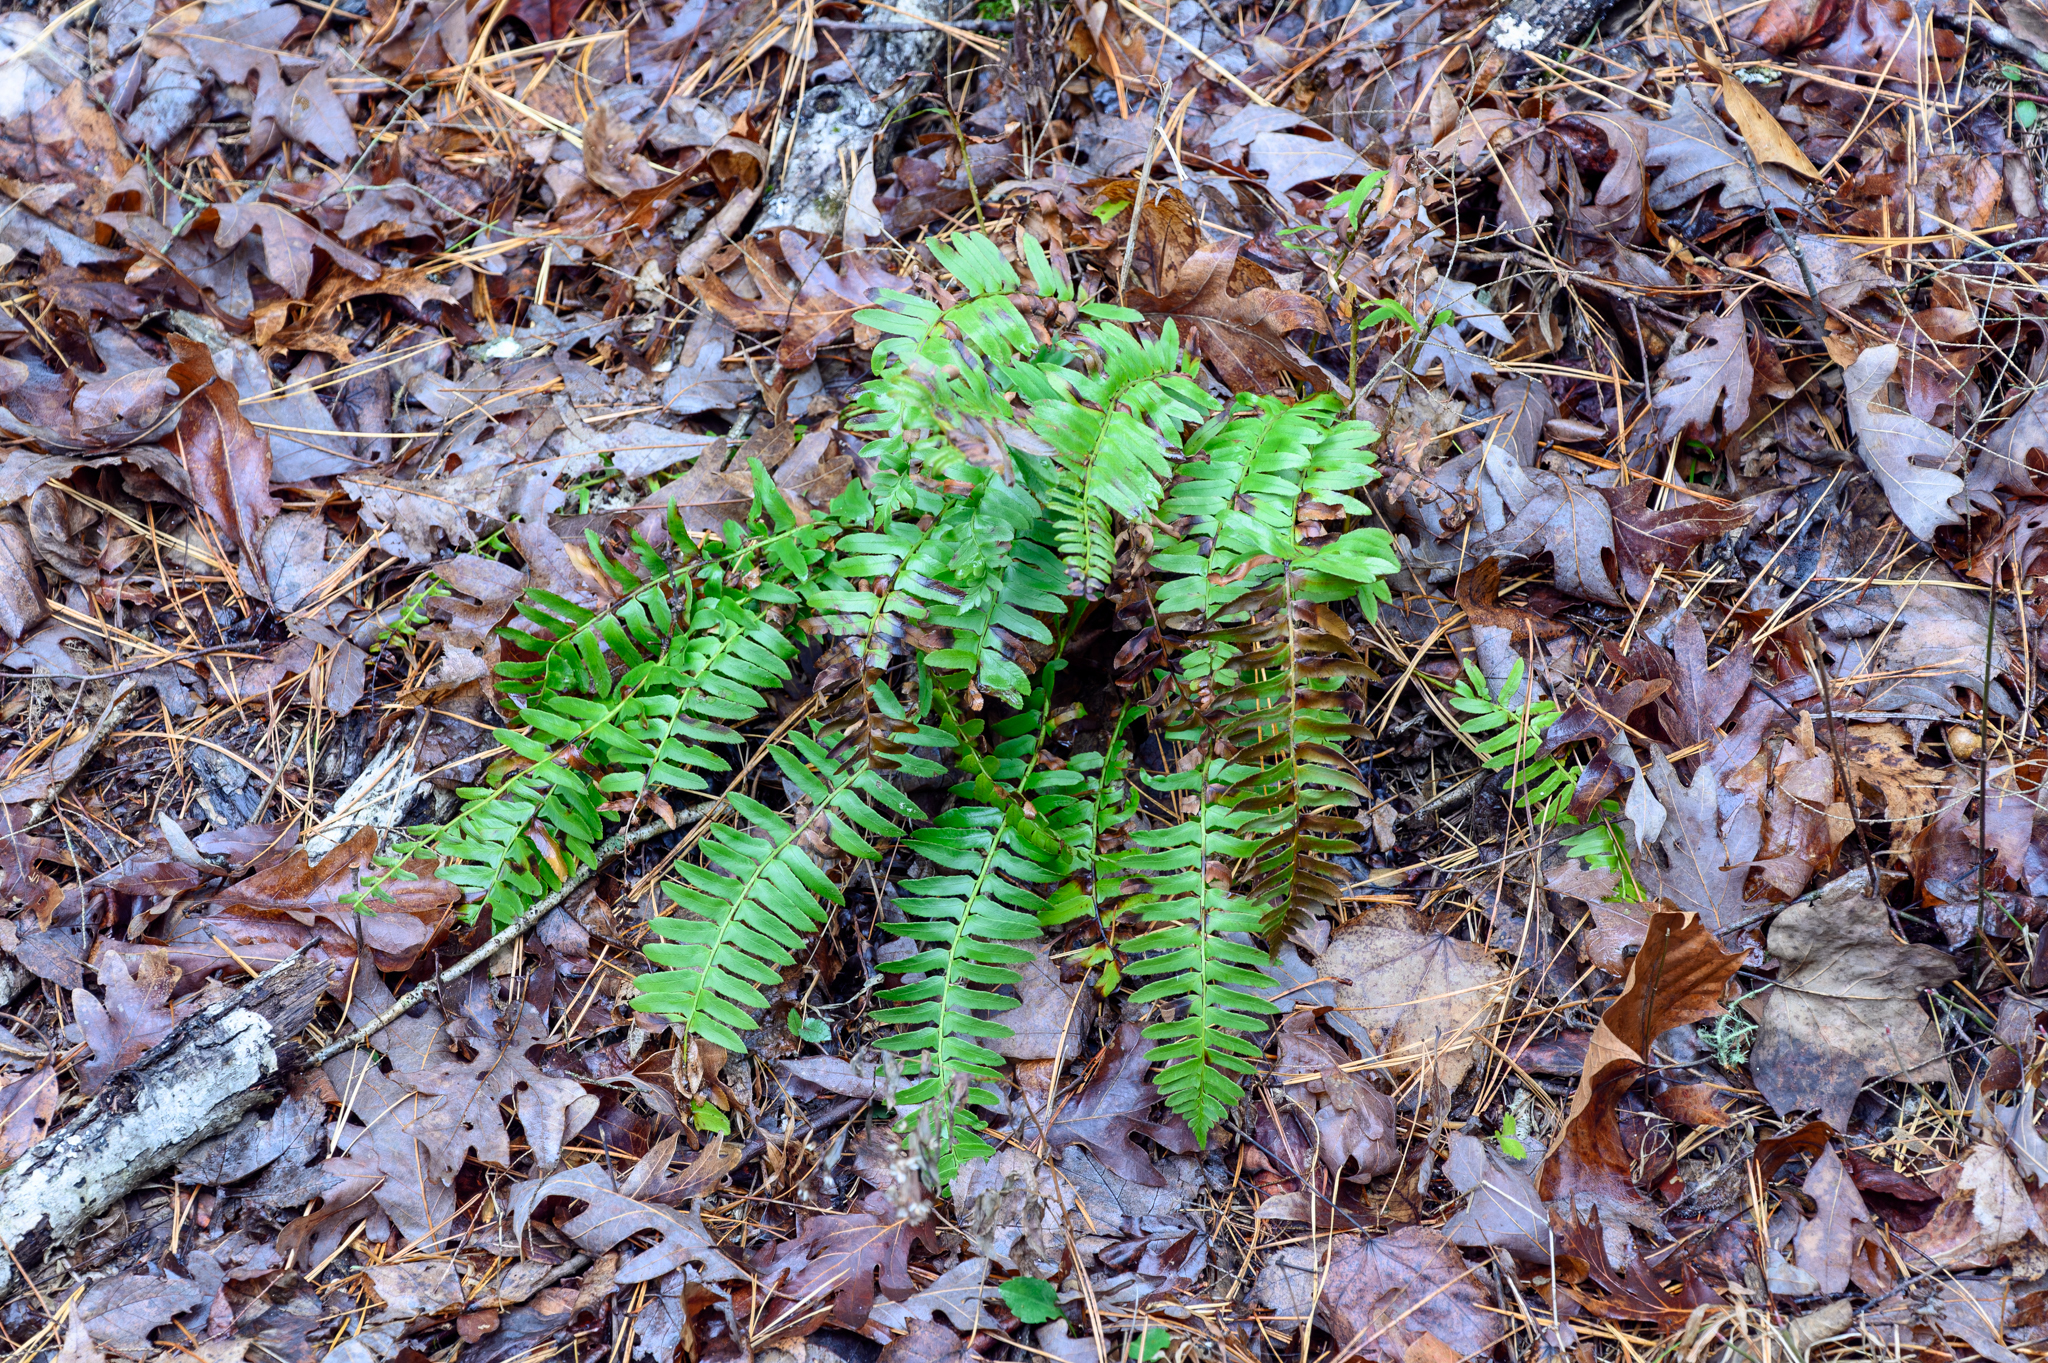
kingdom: Plantae
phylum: Tracheophyta
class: Polypodiopsida
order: Polypodiales
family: Dryopteridaceae
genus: Polystichum
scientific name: Polystichum acrostichoides
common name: Christmas fern
